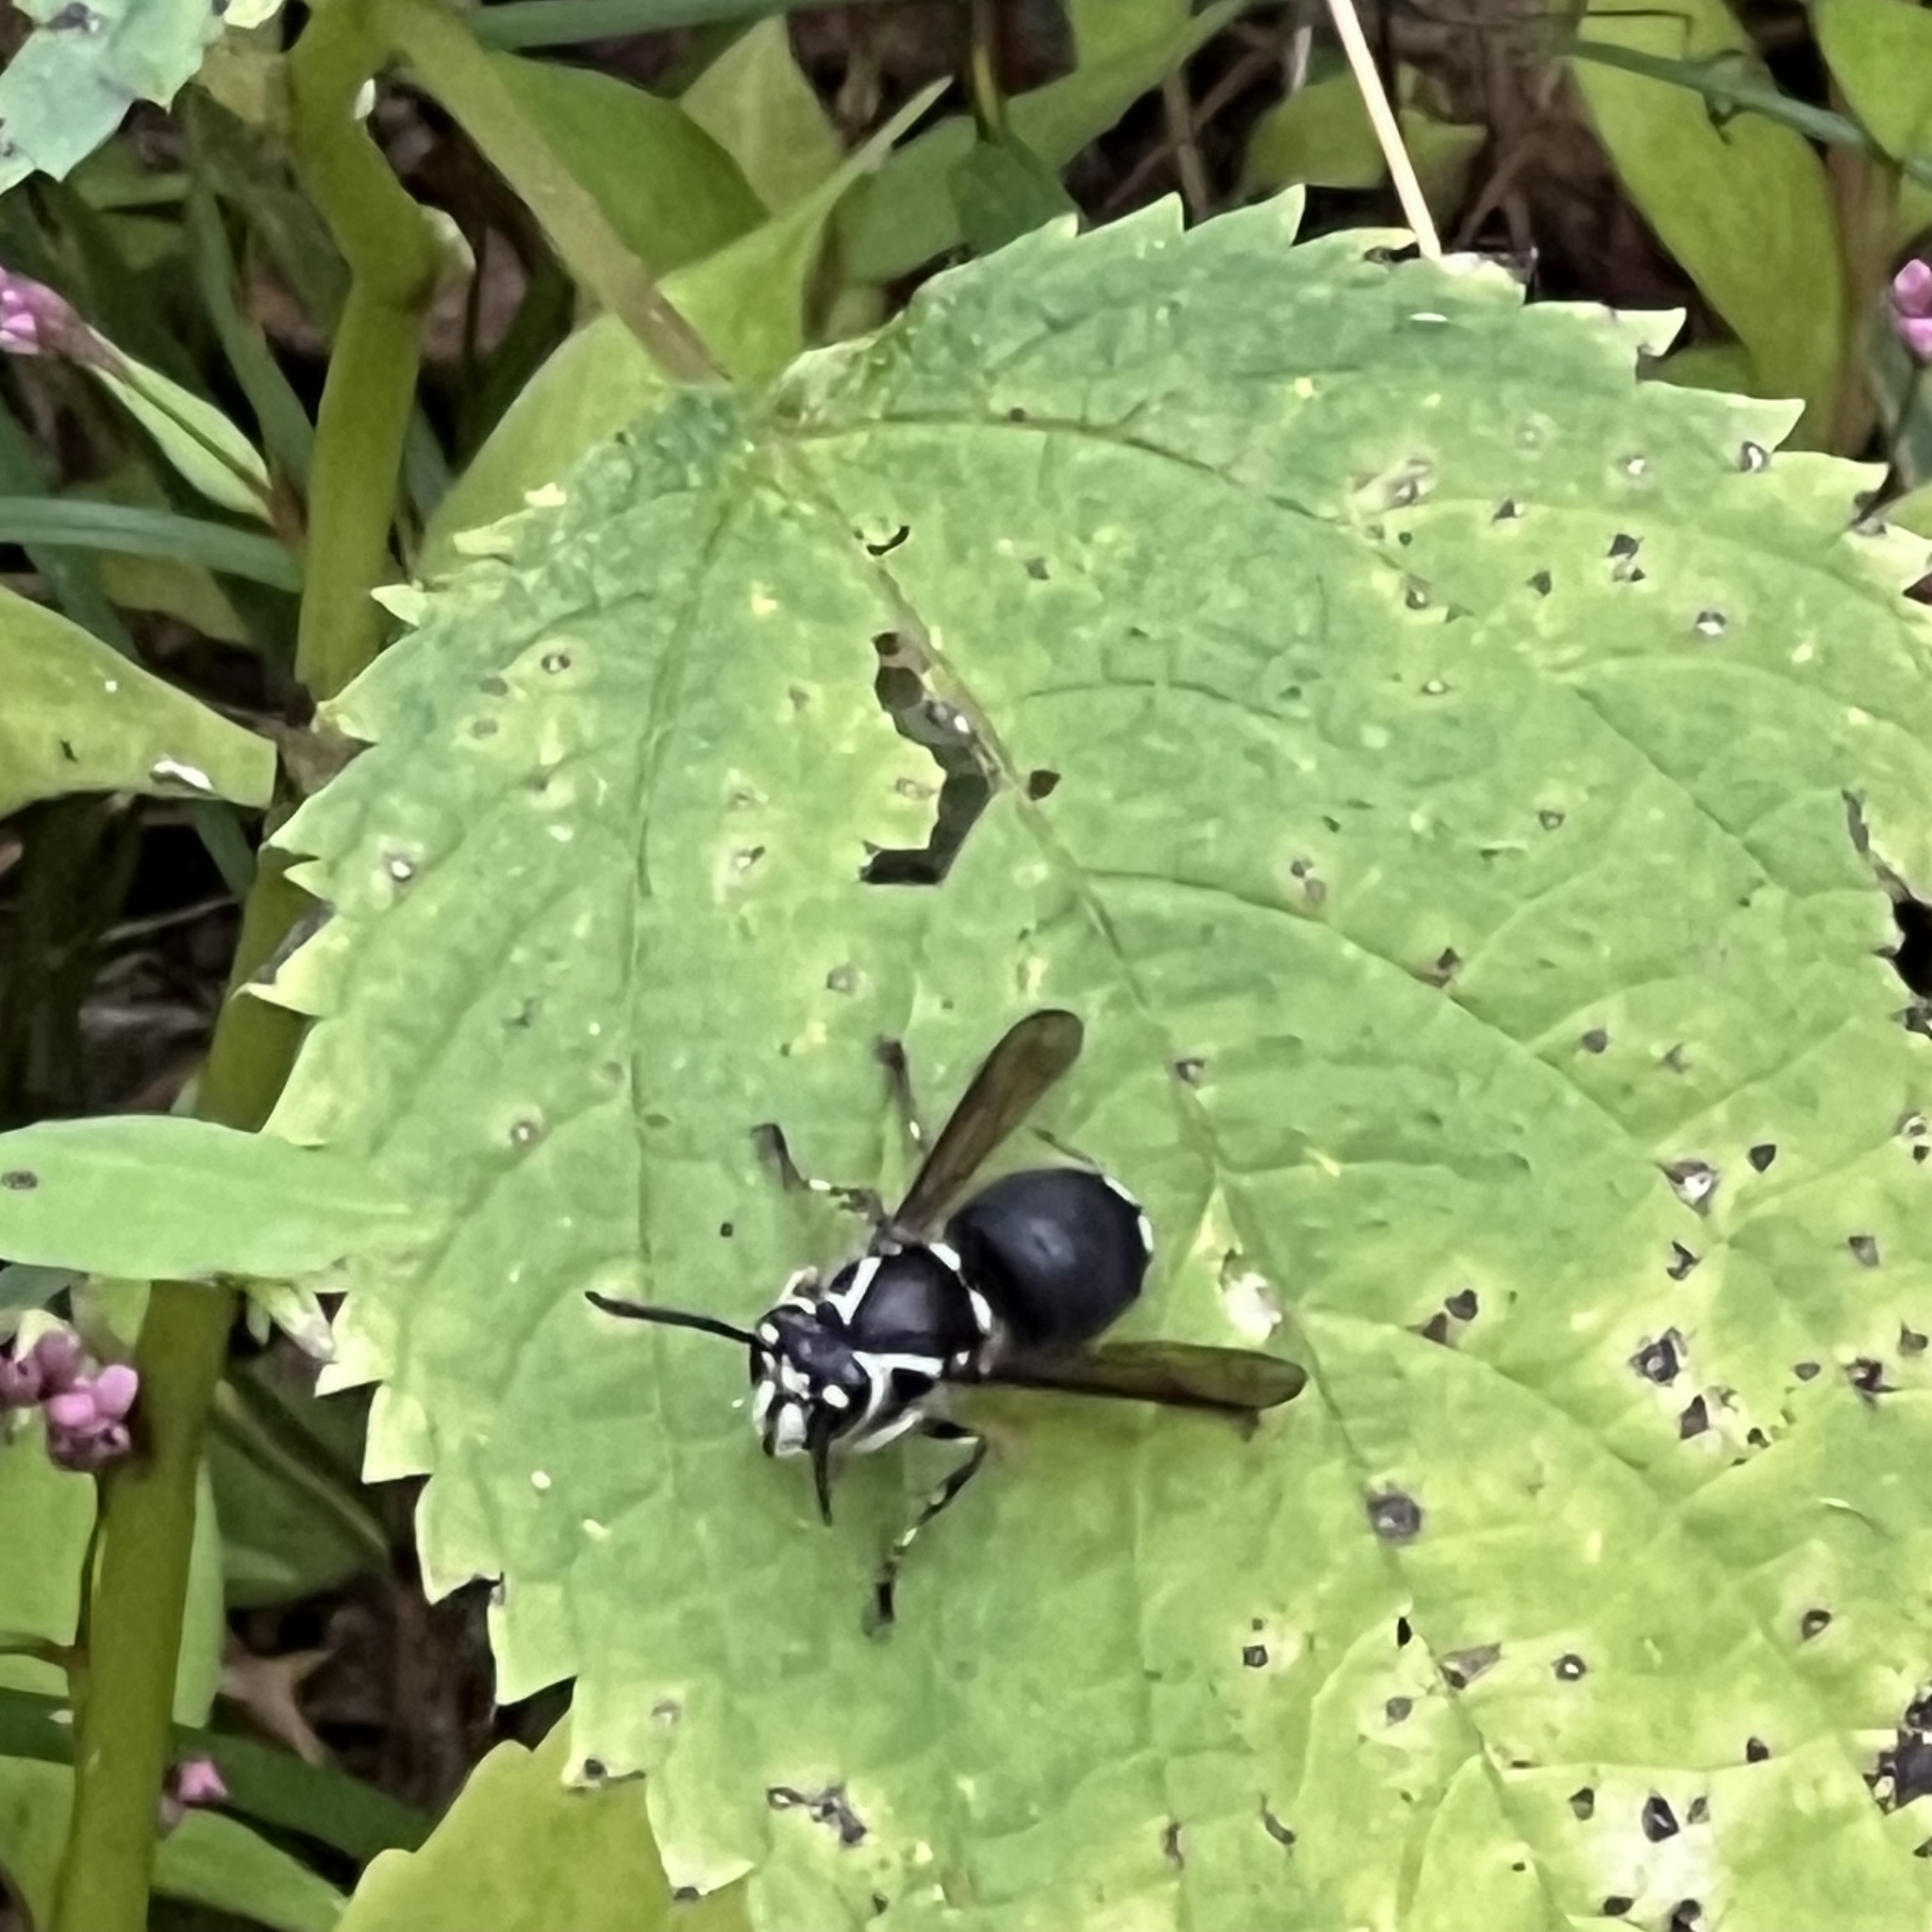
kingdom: Animalia
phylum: Arthropoda
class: Insecta
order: Hymenoptera
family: Vespidae
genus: Dolichovespula
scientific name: Dolichovespula maculata
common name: Bald-faced hornet
